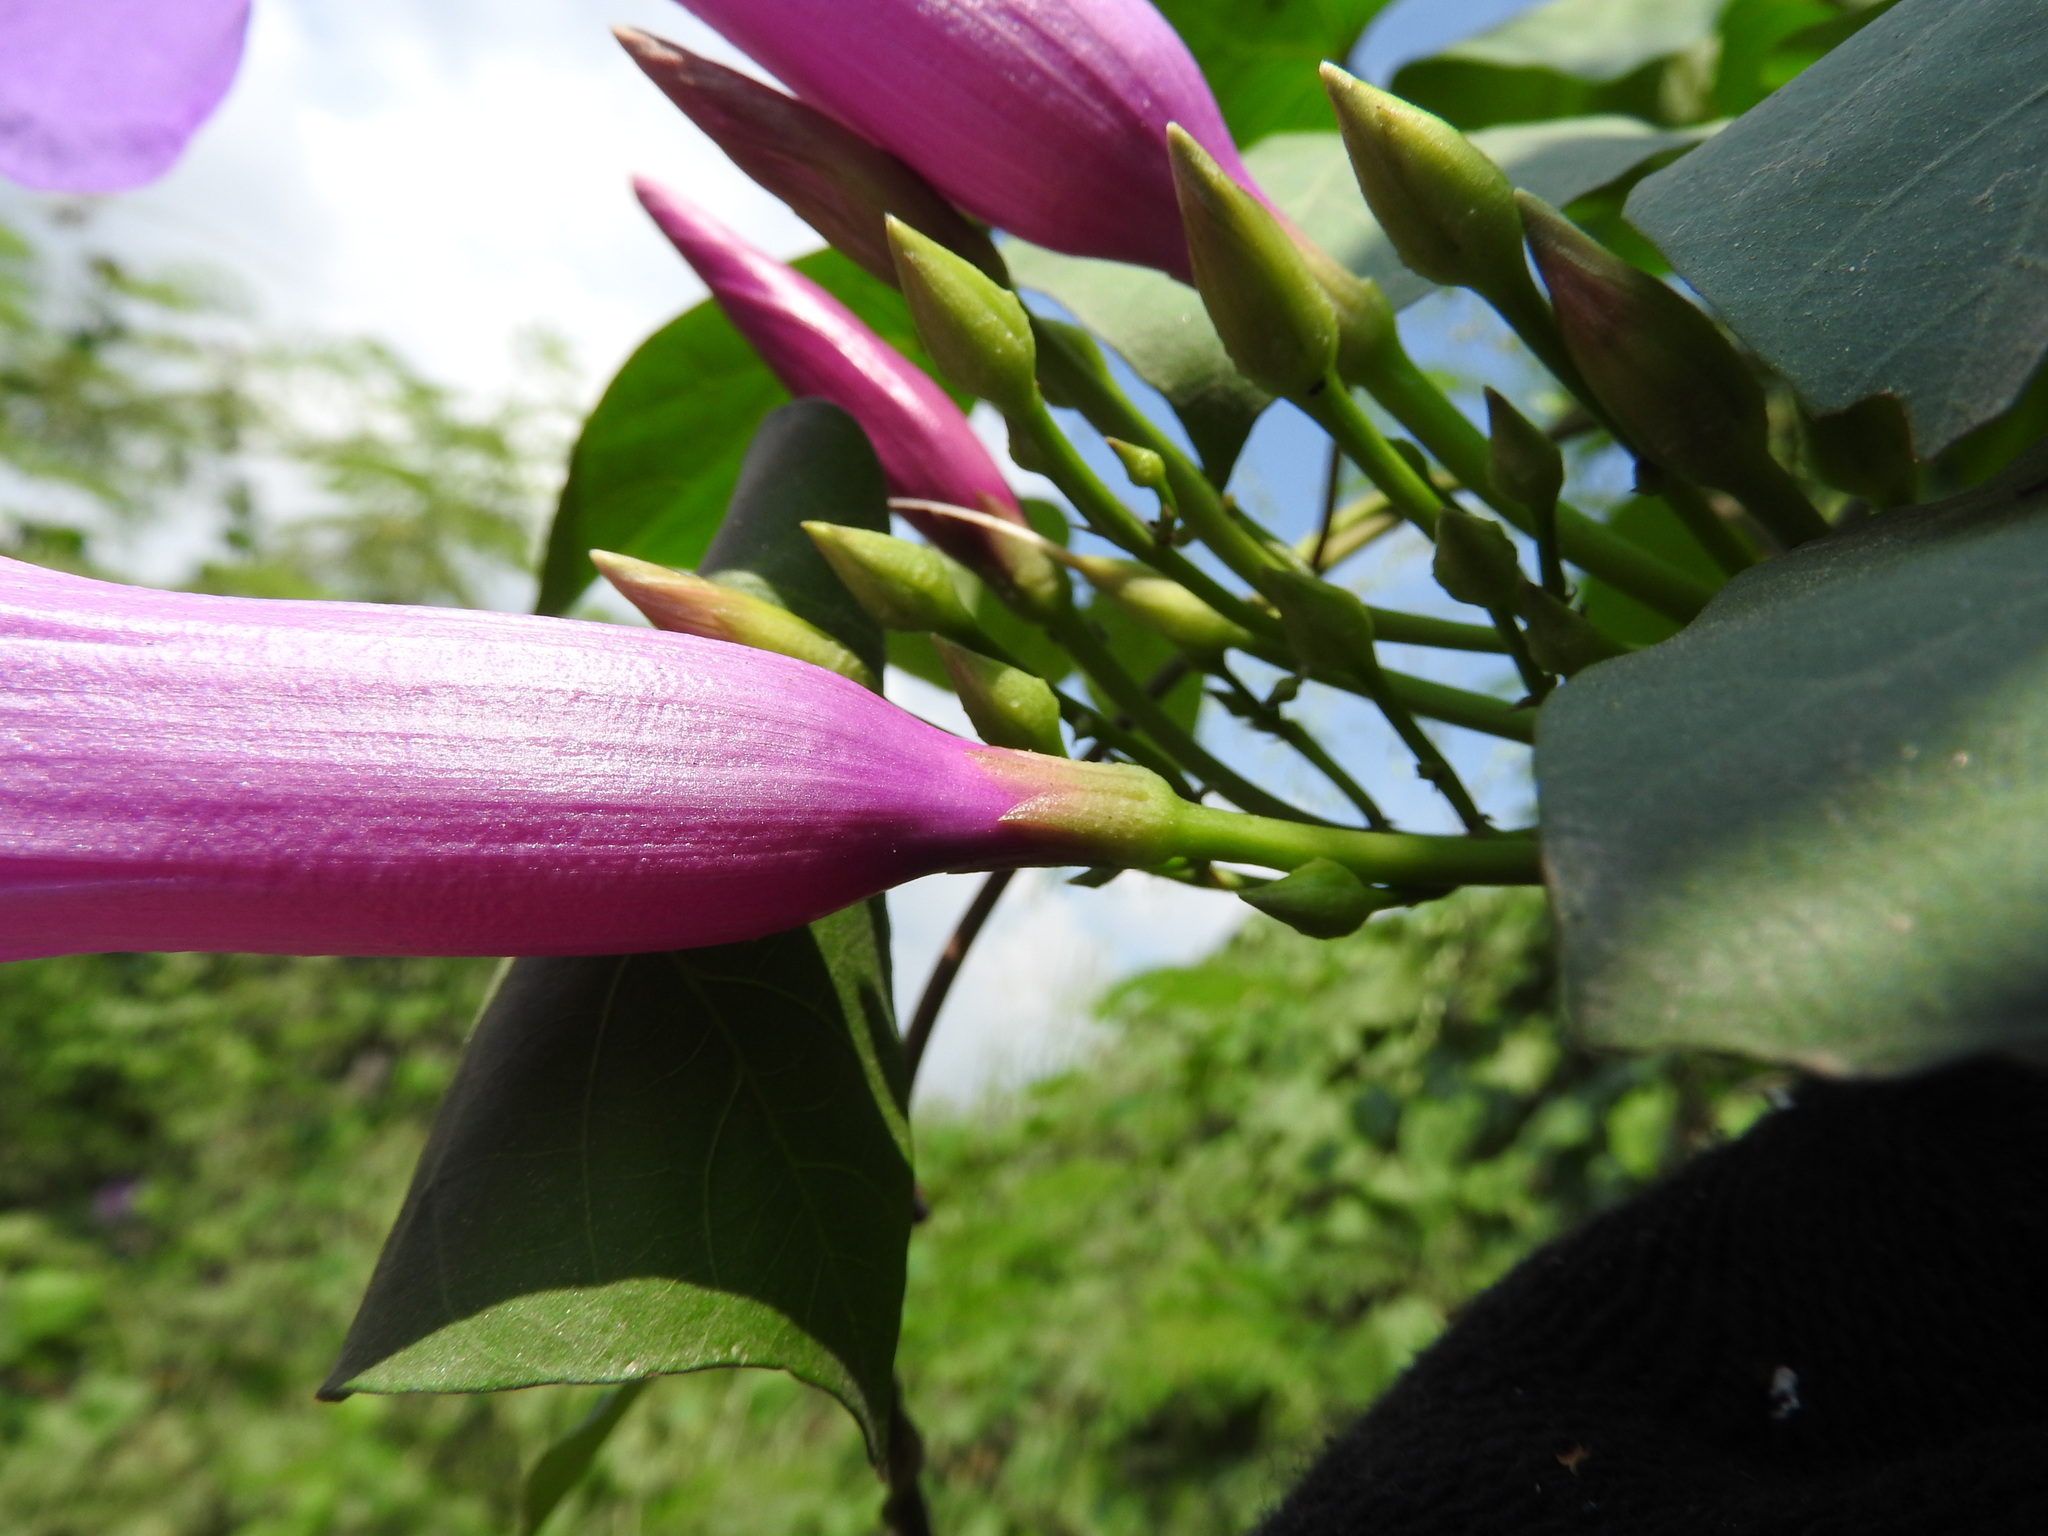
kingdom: Plantae
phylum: Tracheophyta
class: Magnoliopsida
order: Solanales
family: Convolvulaceae
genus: Ipomoea
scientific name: Ipomoea pedicellaris
